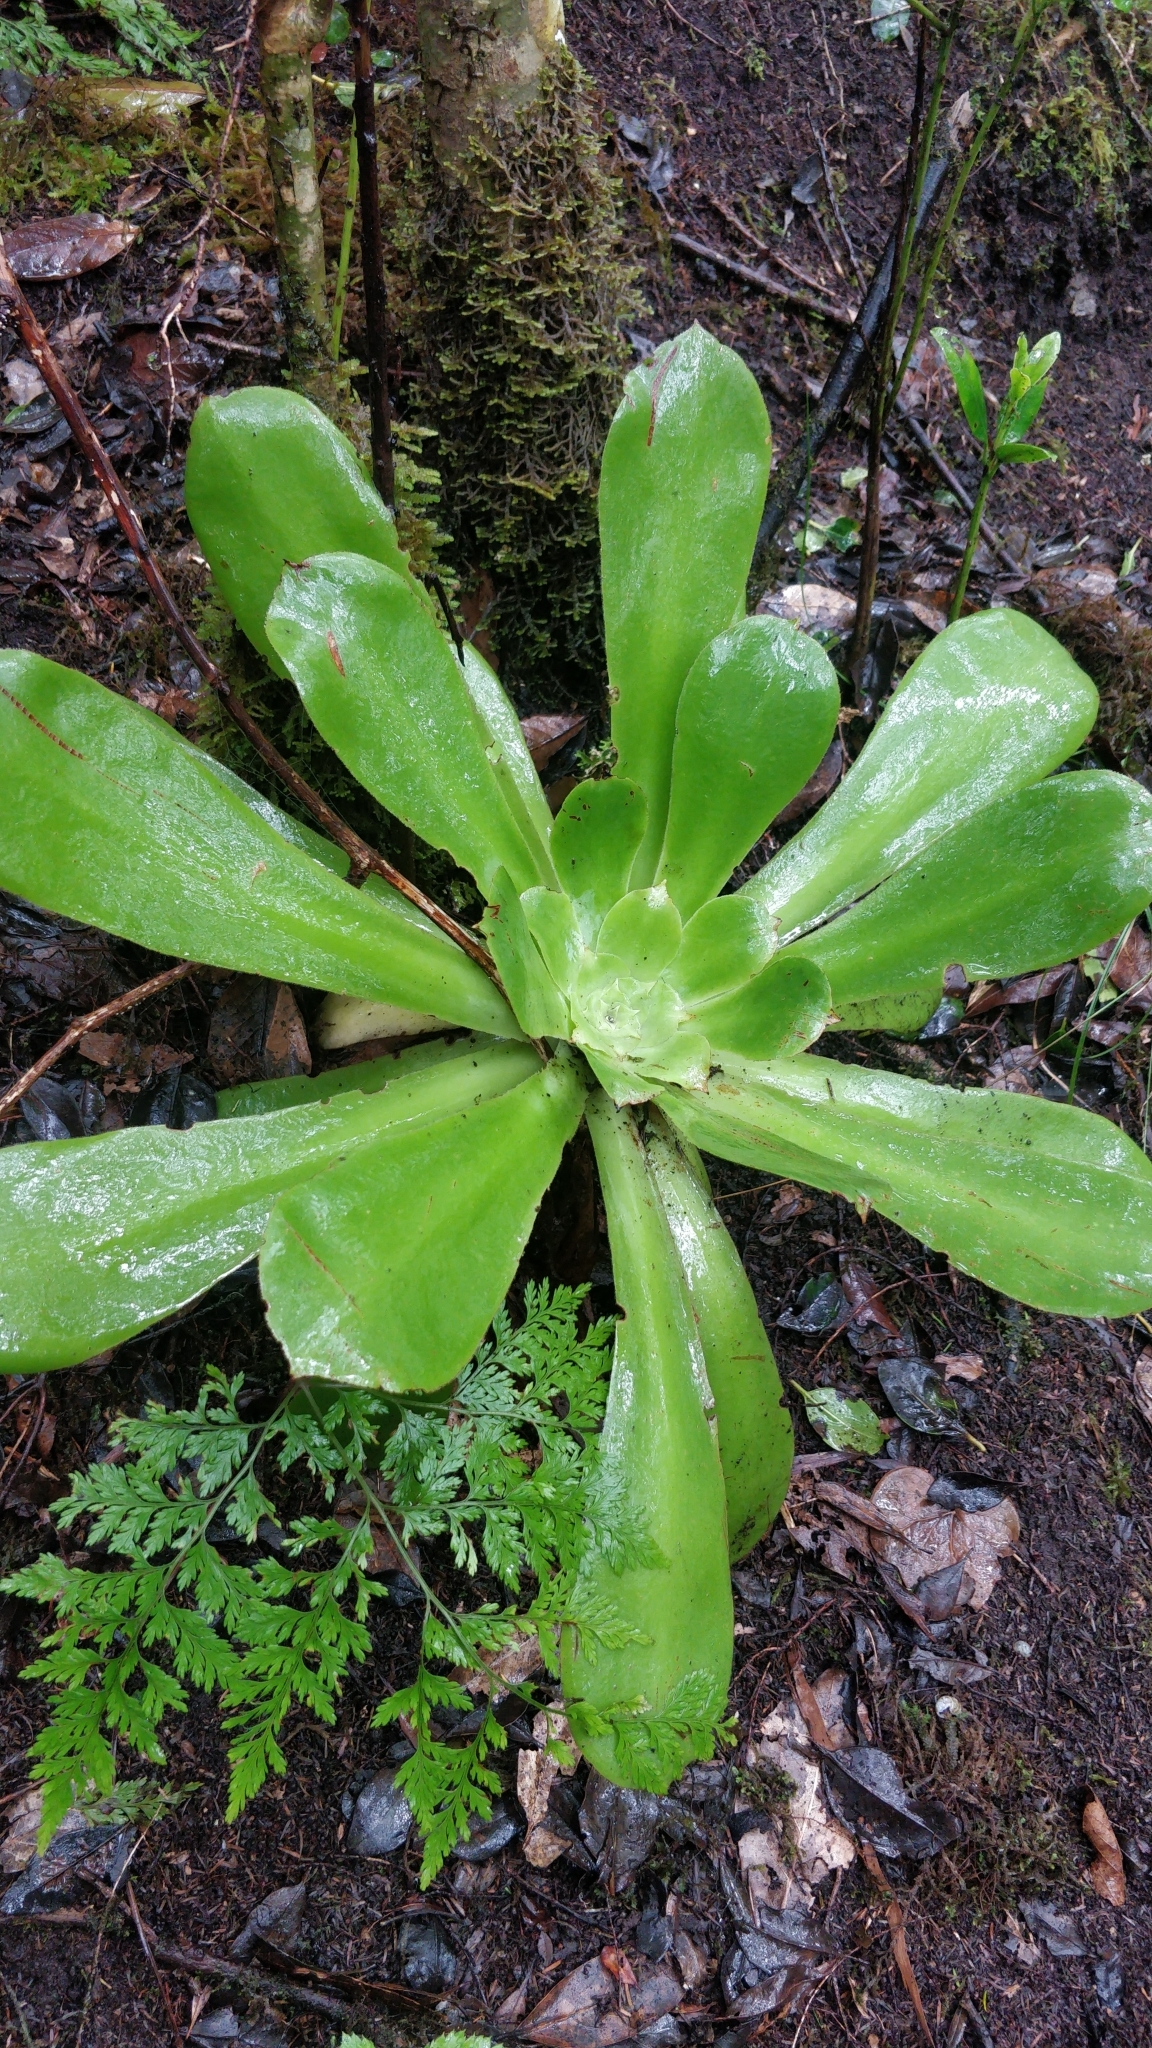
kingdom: Plantae
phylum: Tracheophyta
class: Magnoliopsida
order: Saxifragales
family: Crassulaceae
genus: Aeonium
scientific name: Aeonium cuneatum
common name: Aeonium
